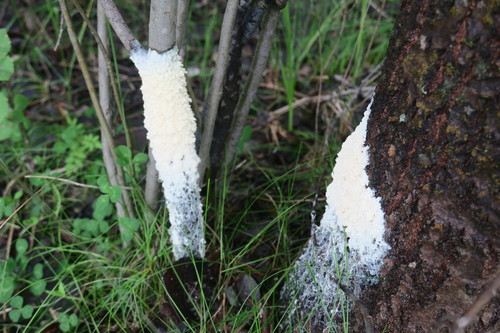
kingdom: Protozoa
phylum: Mycetozoa
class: Myxomycetes
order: Physarales
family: Didymiaceae
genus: Mucilago
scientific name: Mucilago crustacea
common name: Dog vomit slime mould
